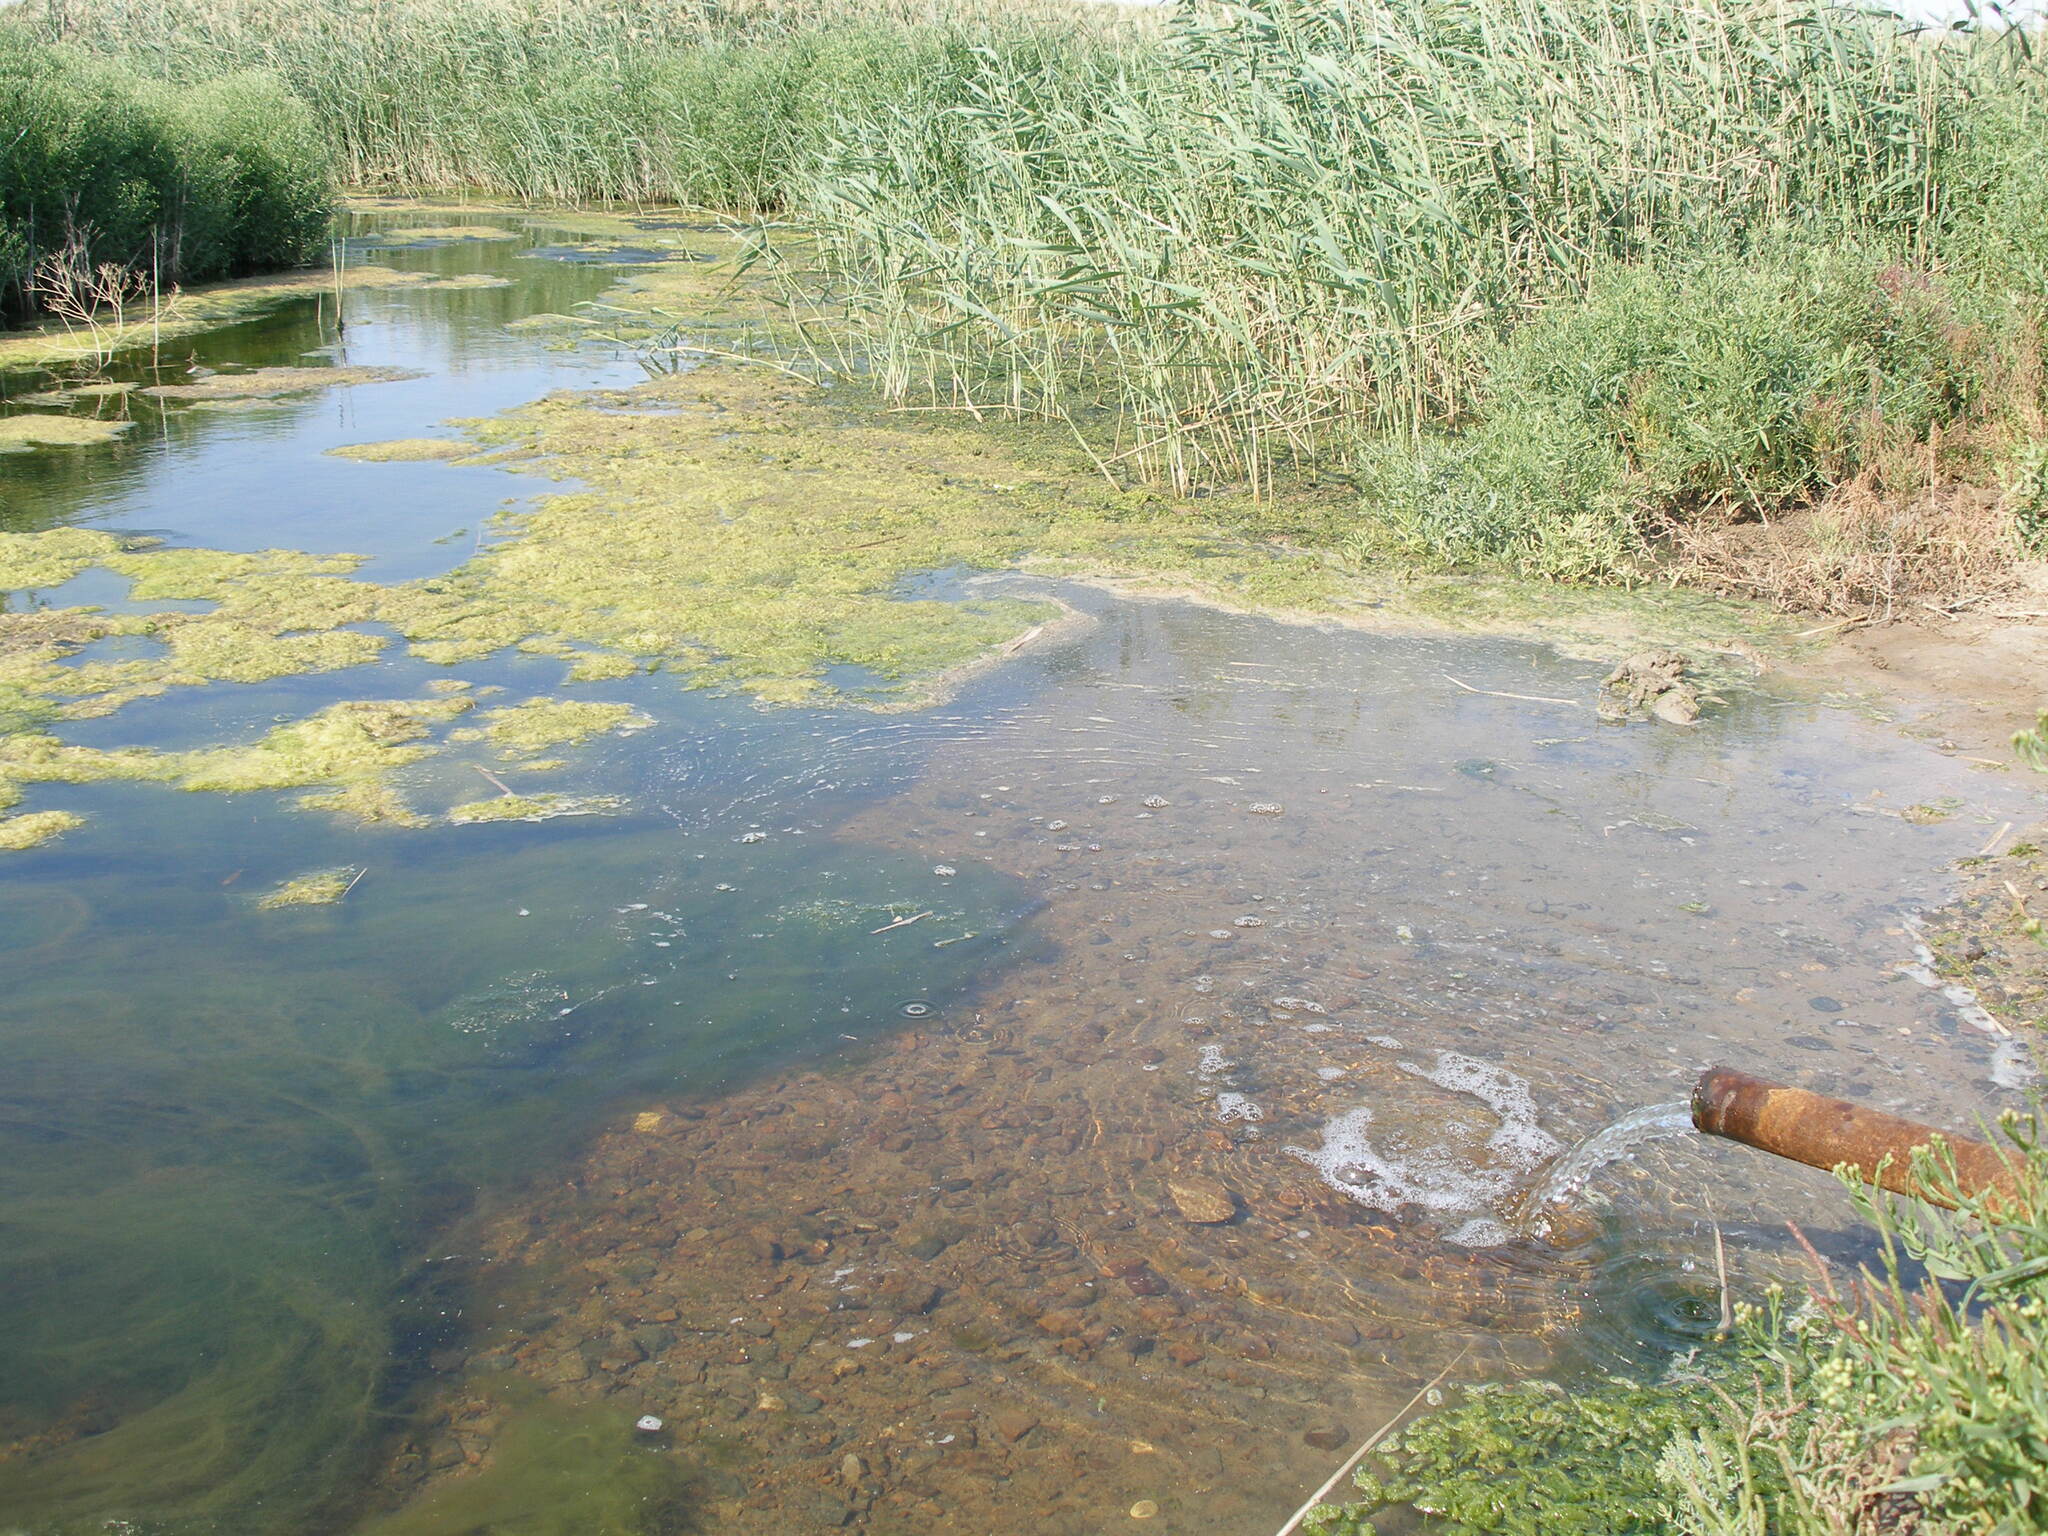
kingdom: Plantae
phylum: Tracheophyta
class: Liliopsida
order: Poales
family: Poaceae
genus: Phragmites
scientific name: Phragmites australis
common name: Common reed
